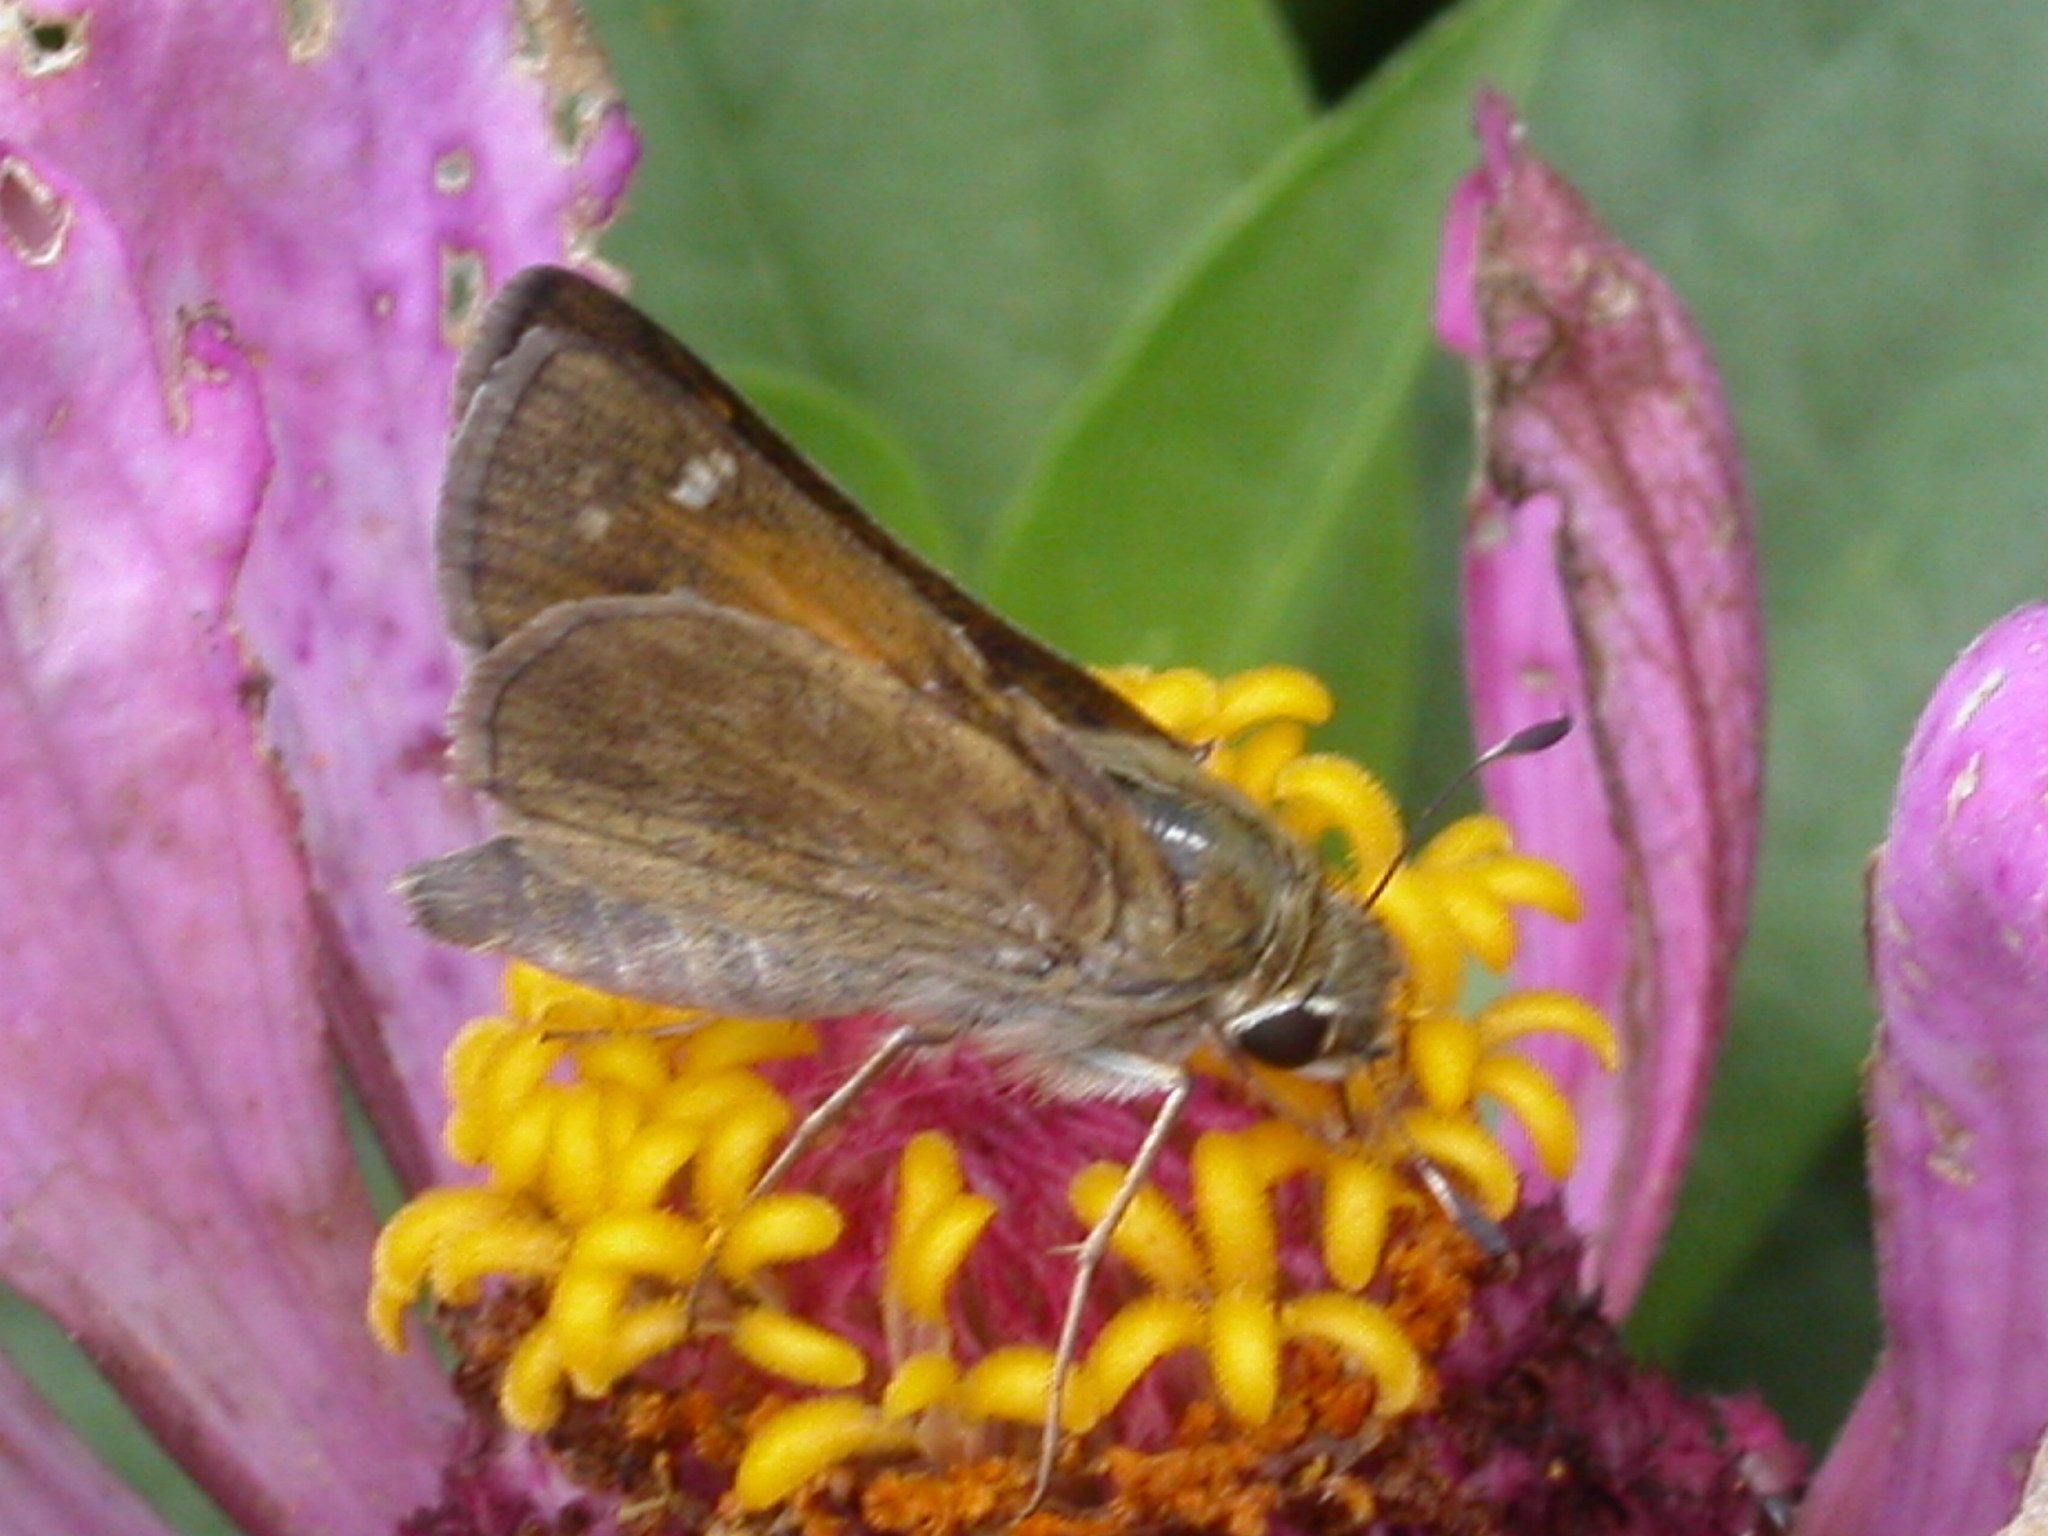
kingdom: Animalia
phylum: Arthropoda
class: Insecta
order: Lepidoptera
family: Hesperiidae
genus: Atalopedes
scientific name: Atalopedes
